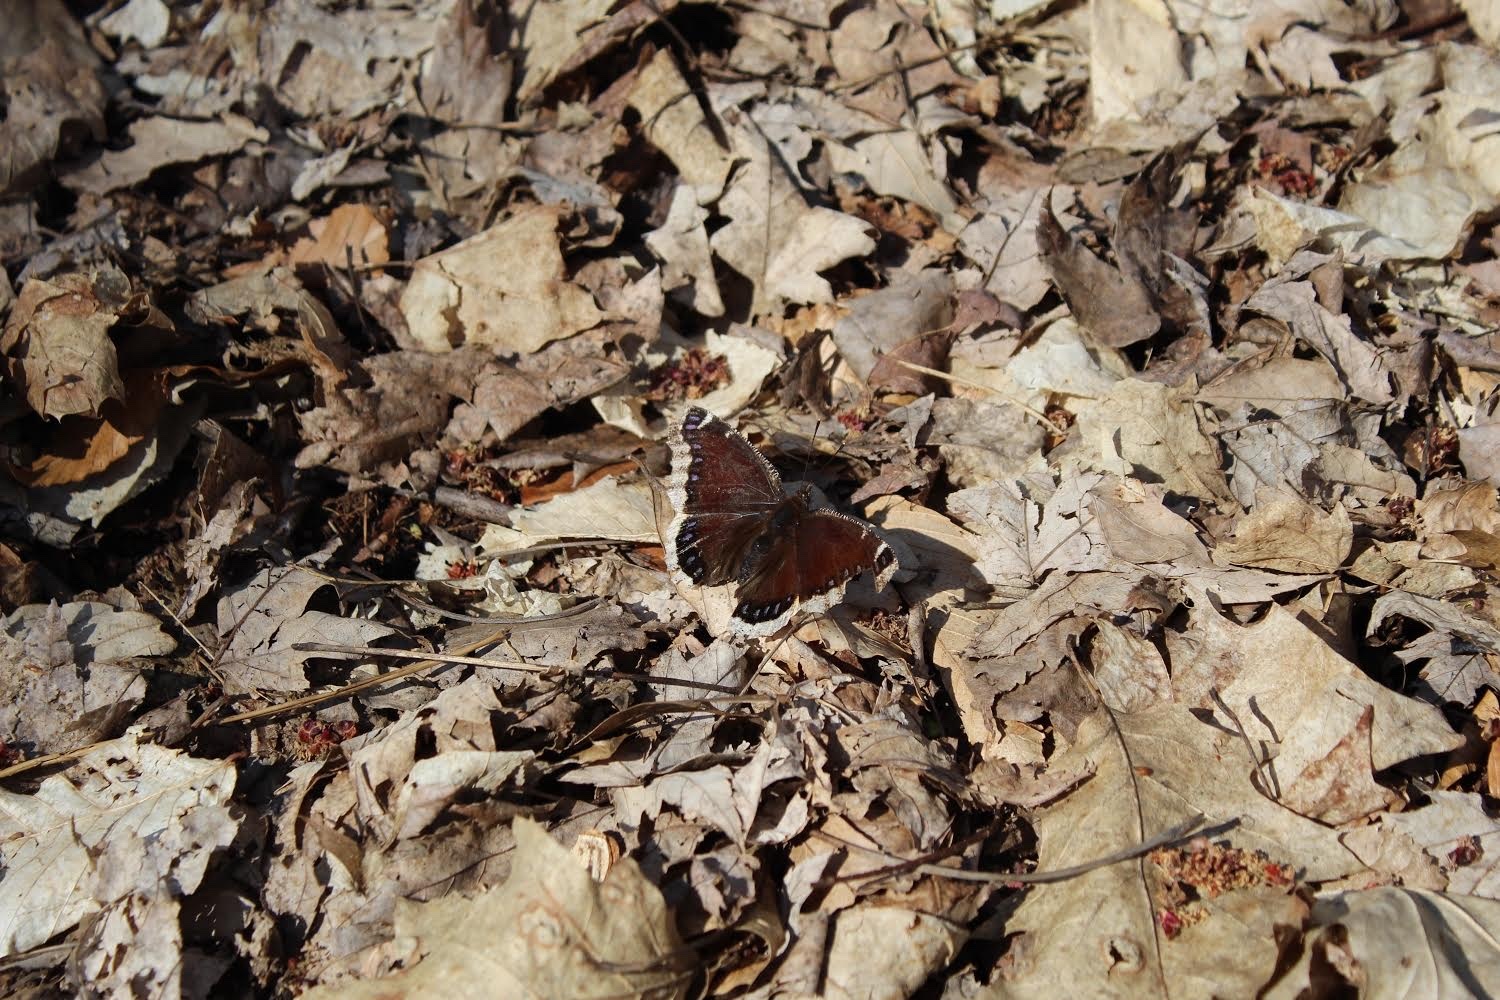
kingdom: Animalia
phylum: Arthropoda
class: Insecta
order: Lepidoptera
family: Nymphalidae
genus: Nymphalis
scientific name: Nymphalis antiopa
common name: Camberwell beauty
